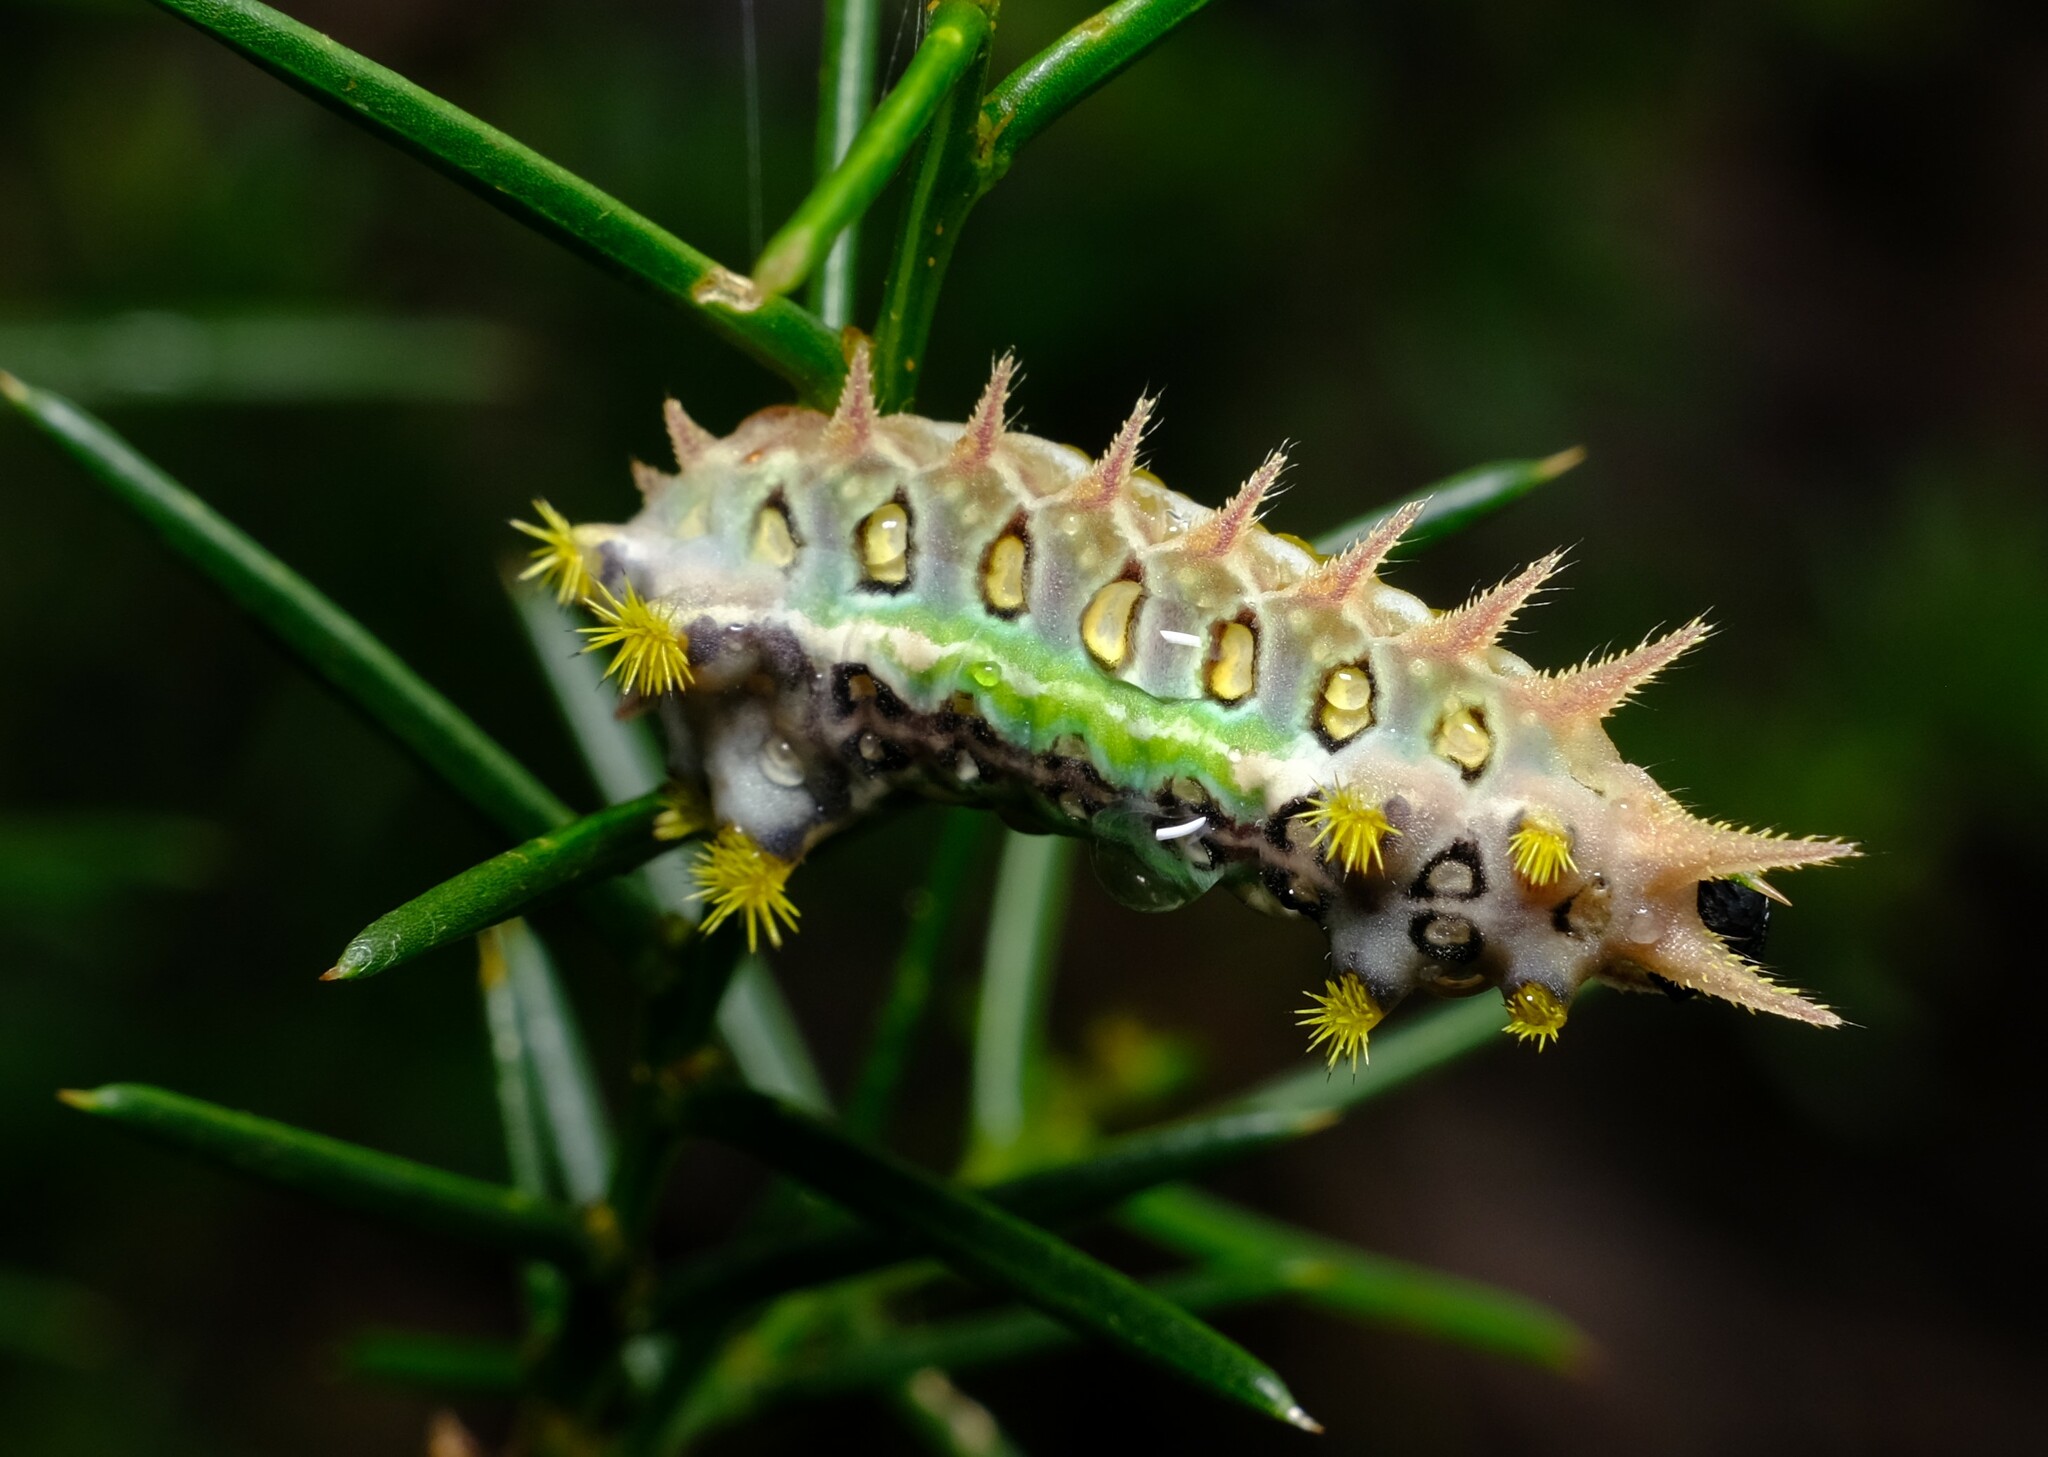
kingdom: Animalia
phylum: Arthropoda
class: Insecta
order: Lepidoptera
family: Limacodidae
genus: Doratifera
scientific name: Doratifera oxleyi
